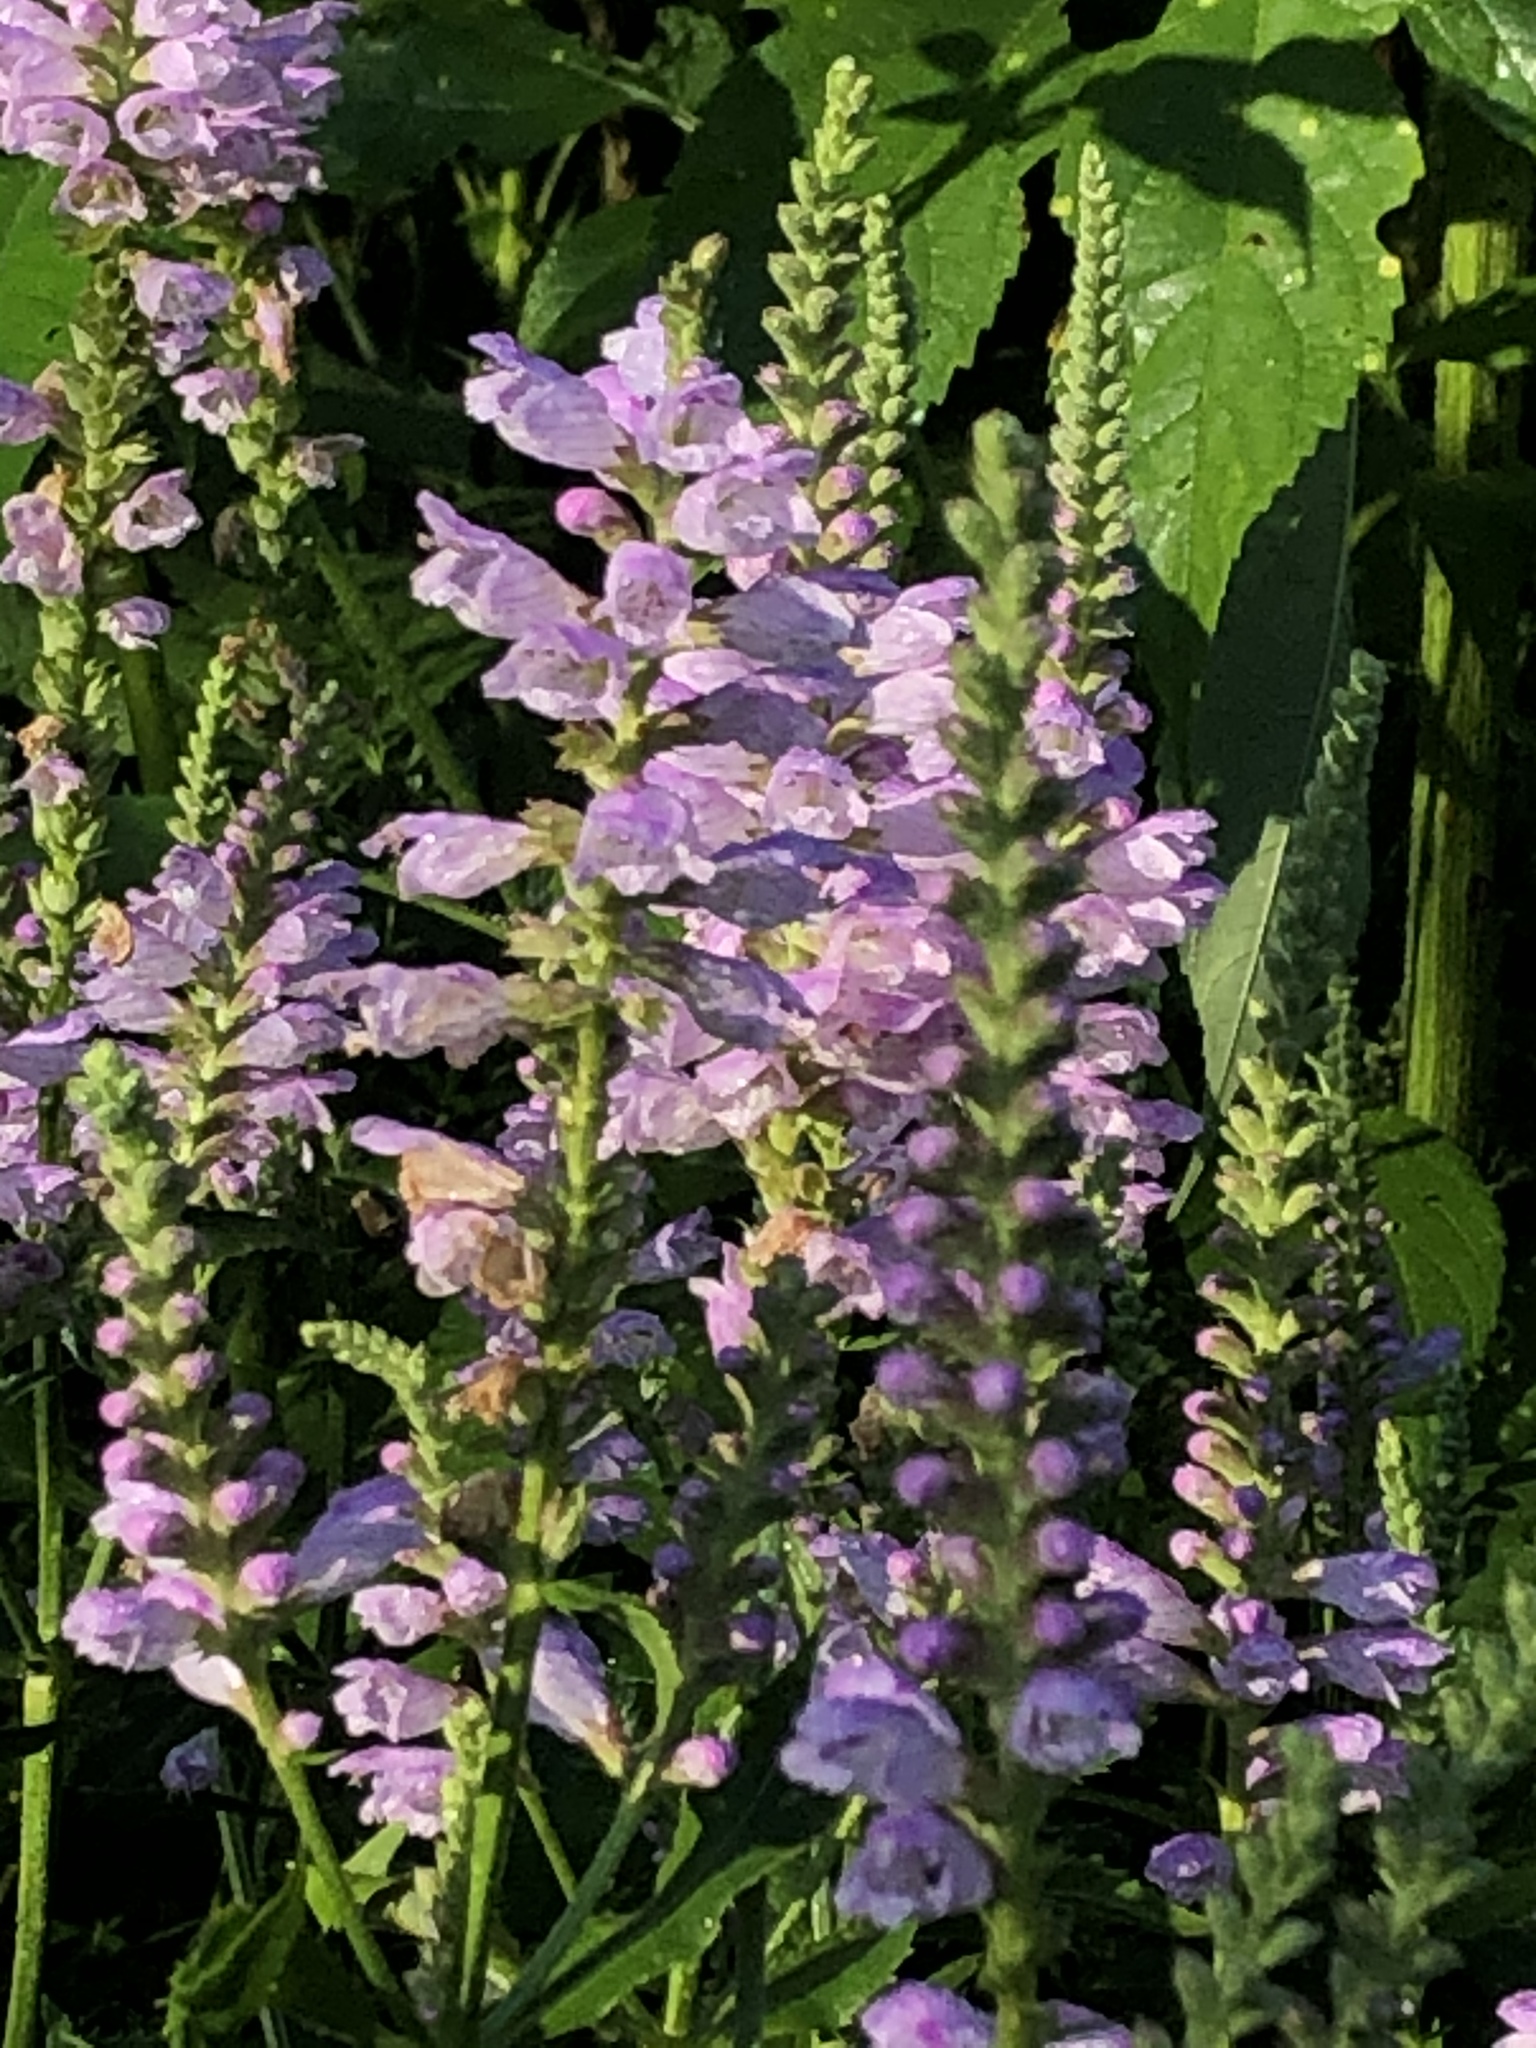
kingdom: Plantae
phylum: Tracheophyta
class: Magnoliopsida
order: Lamiales
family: Lamiaceae
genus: Physostegia
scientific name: Physostegia virginiana
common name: Obedient-plant
